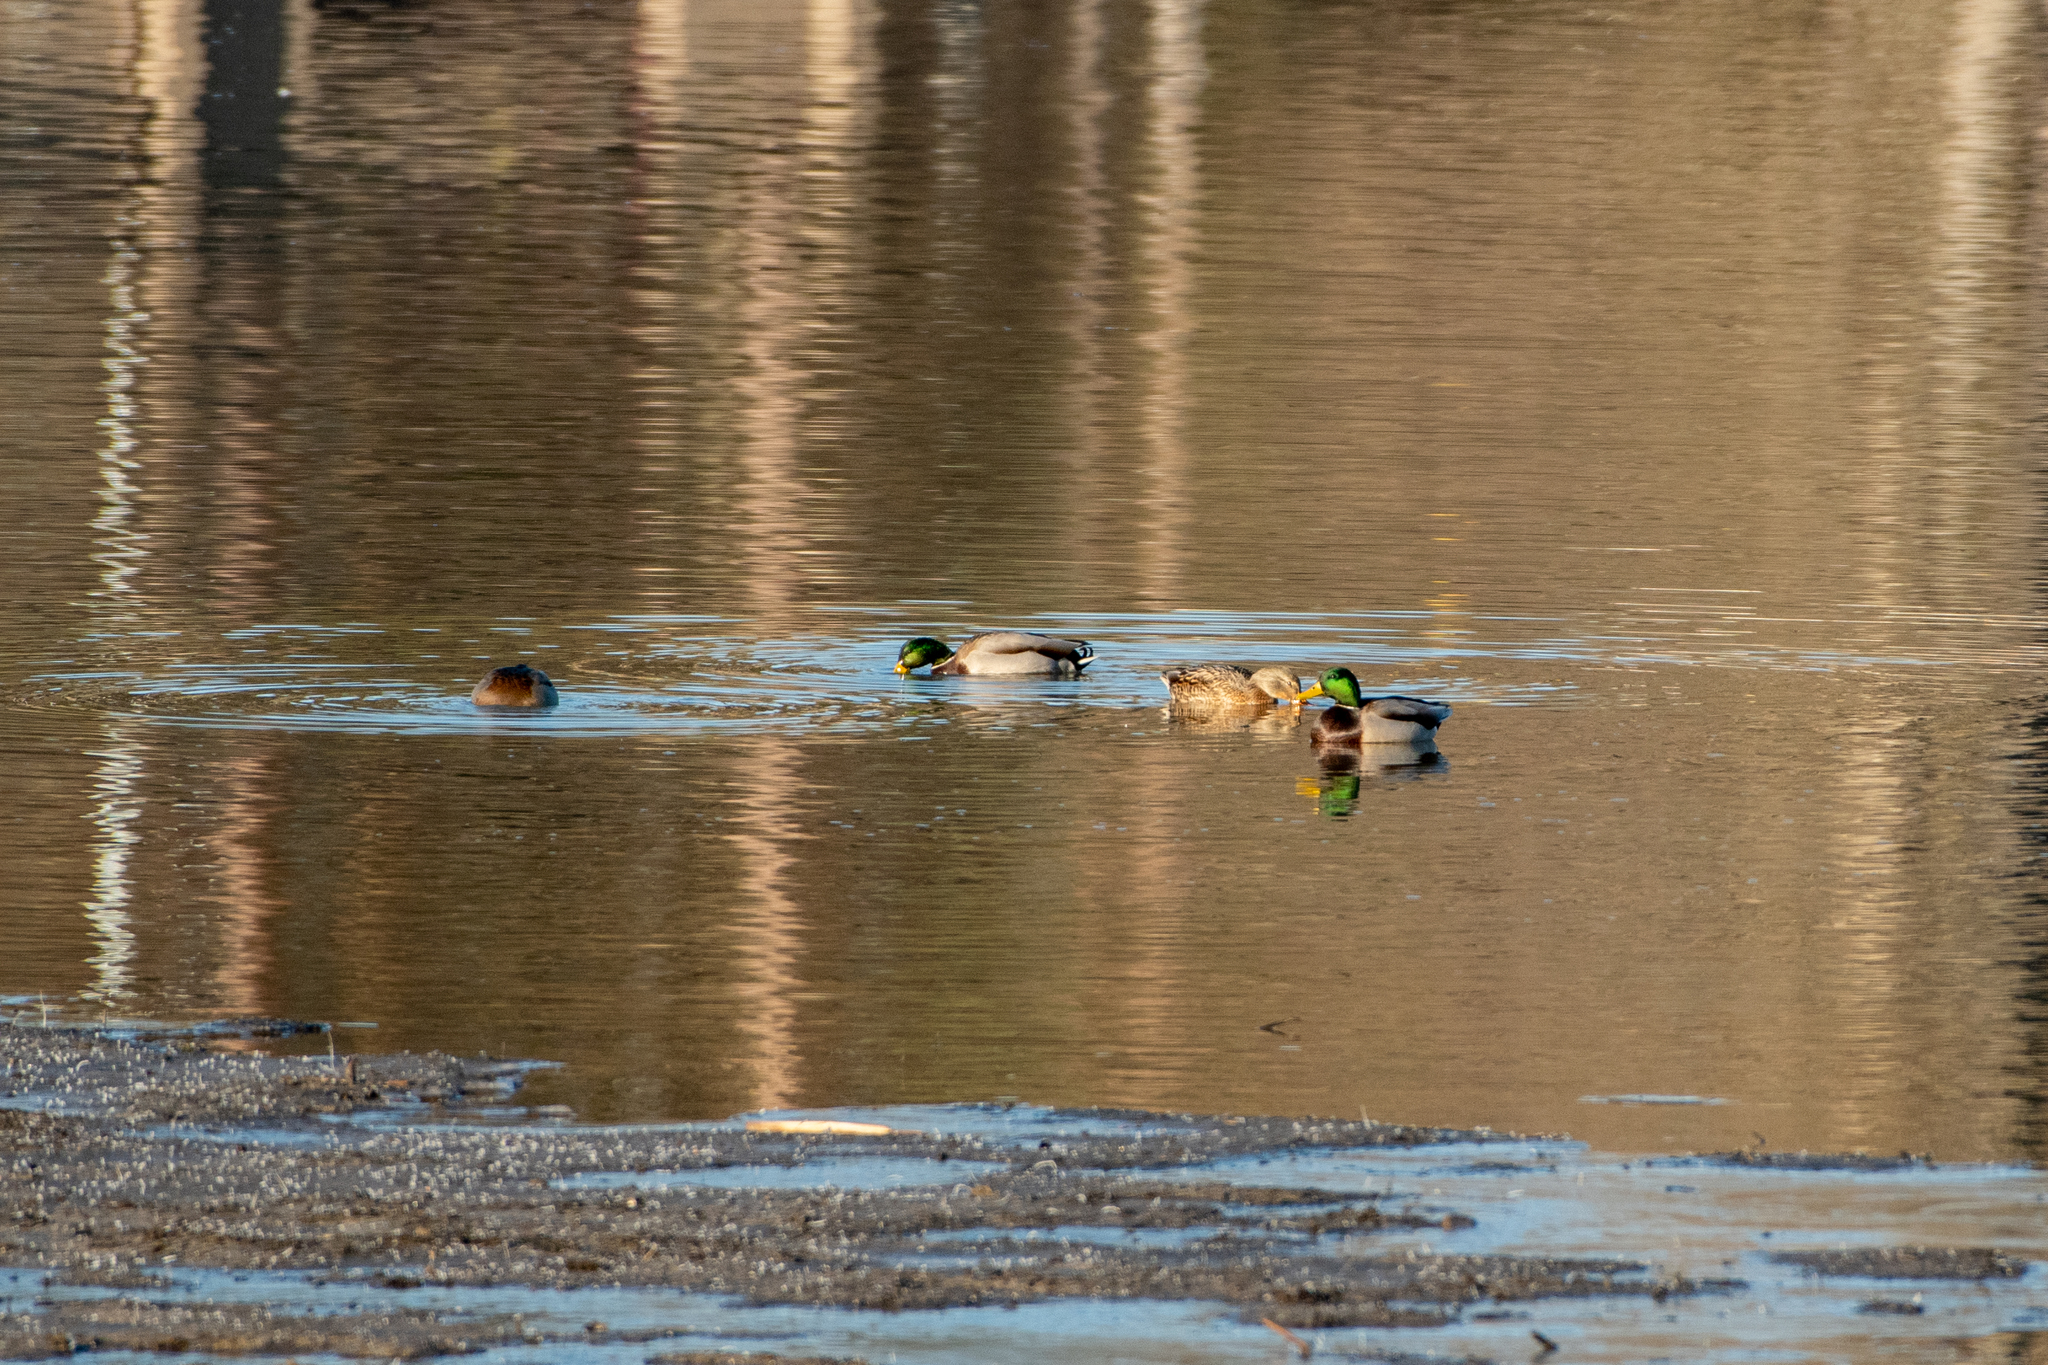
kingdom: Animalia
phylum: Chordata
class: Aves
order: Anseriformes
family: Anatidae
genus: Anas
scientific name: Anas platyrhynchos
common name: Mallard
